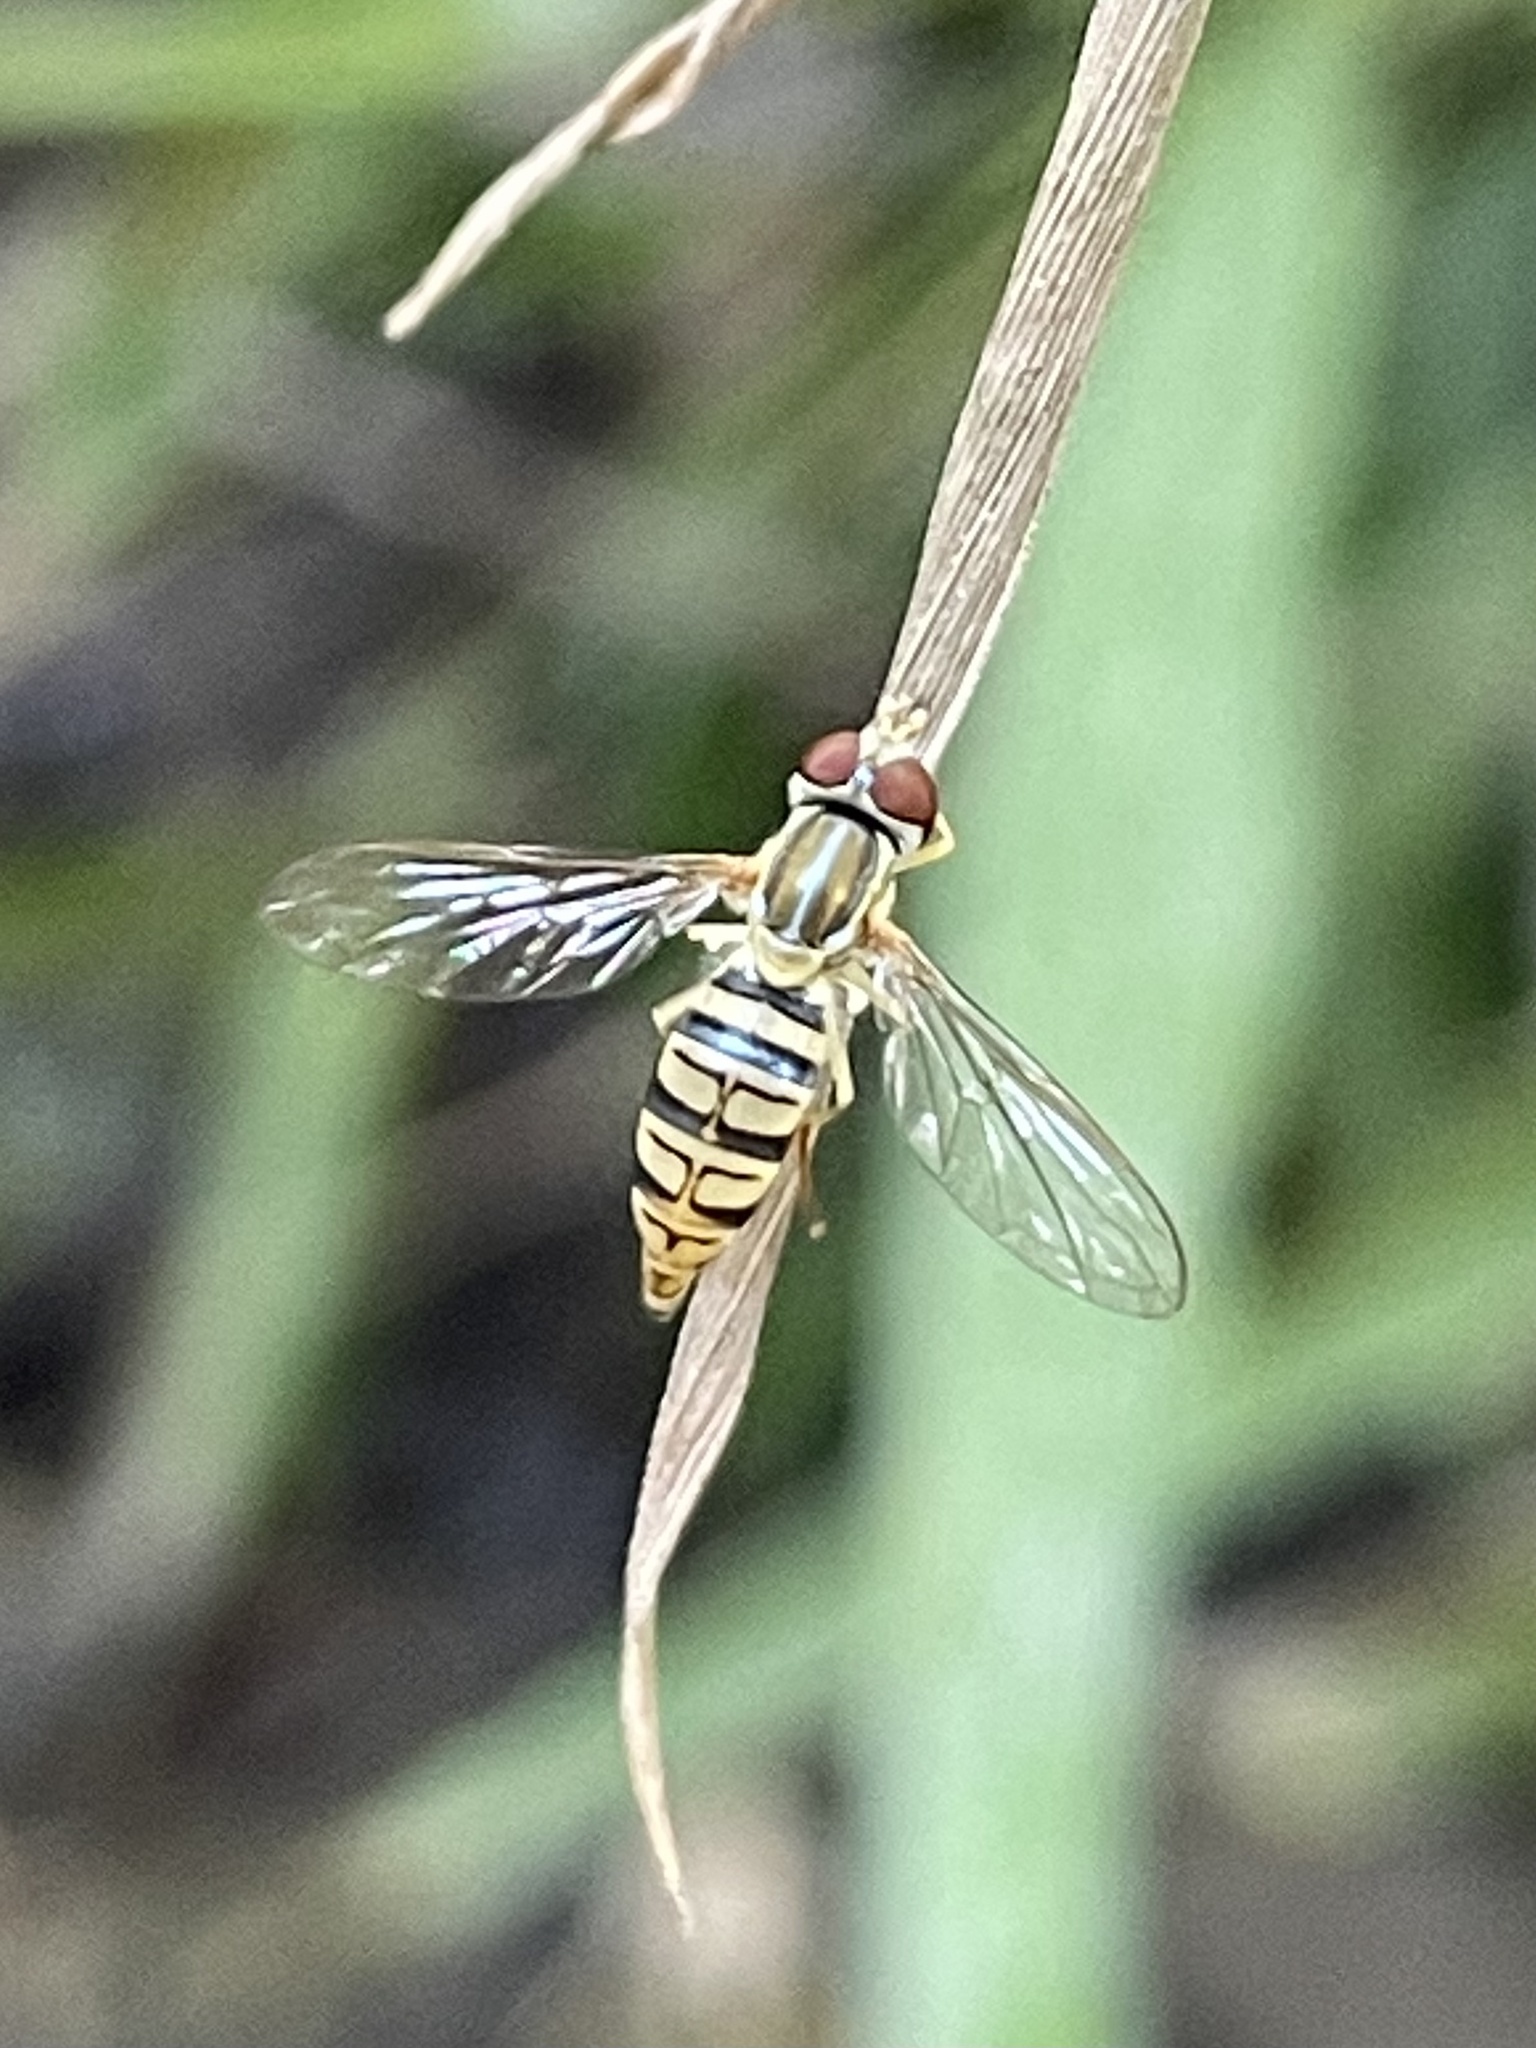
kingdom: Animalia
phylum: Arthropoda
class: Insecta
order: Diptera
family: Syrphidae
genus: Toxomerus
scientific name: Toxomerus politus
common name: Maize calligrapher
